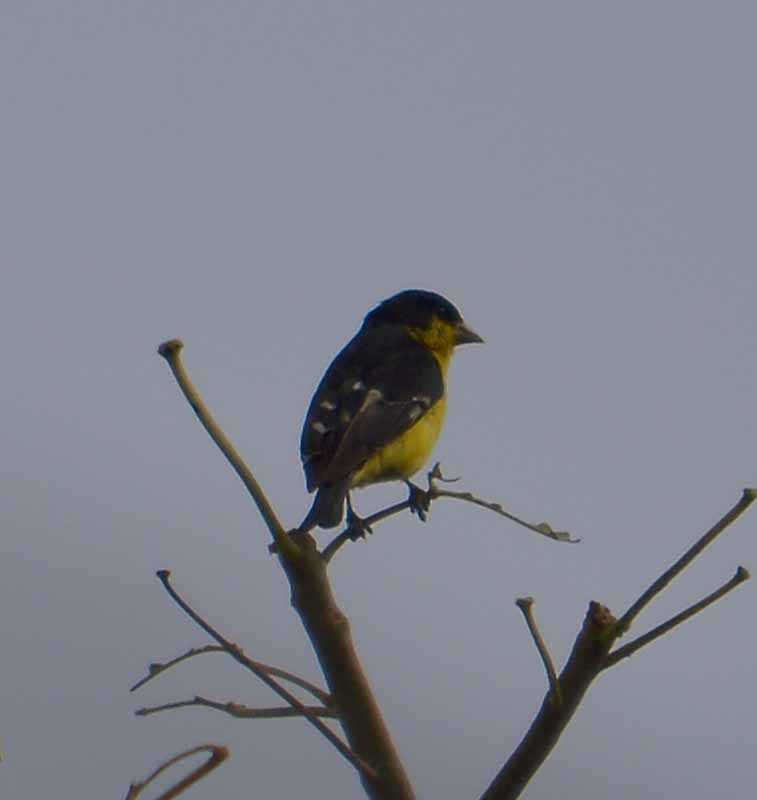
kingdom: Animalia
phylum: Chordata
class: Aves
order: Passeriformes
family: Fringillidae
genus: Spinus
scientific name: Spinus psaltria
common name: Lesser goldfinch
